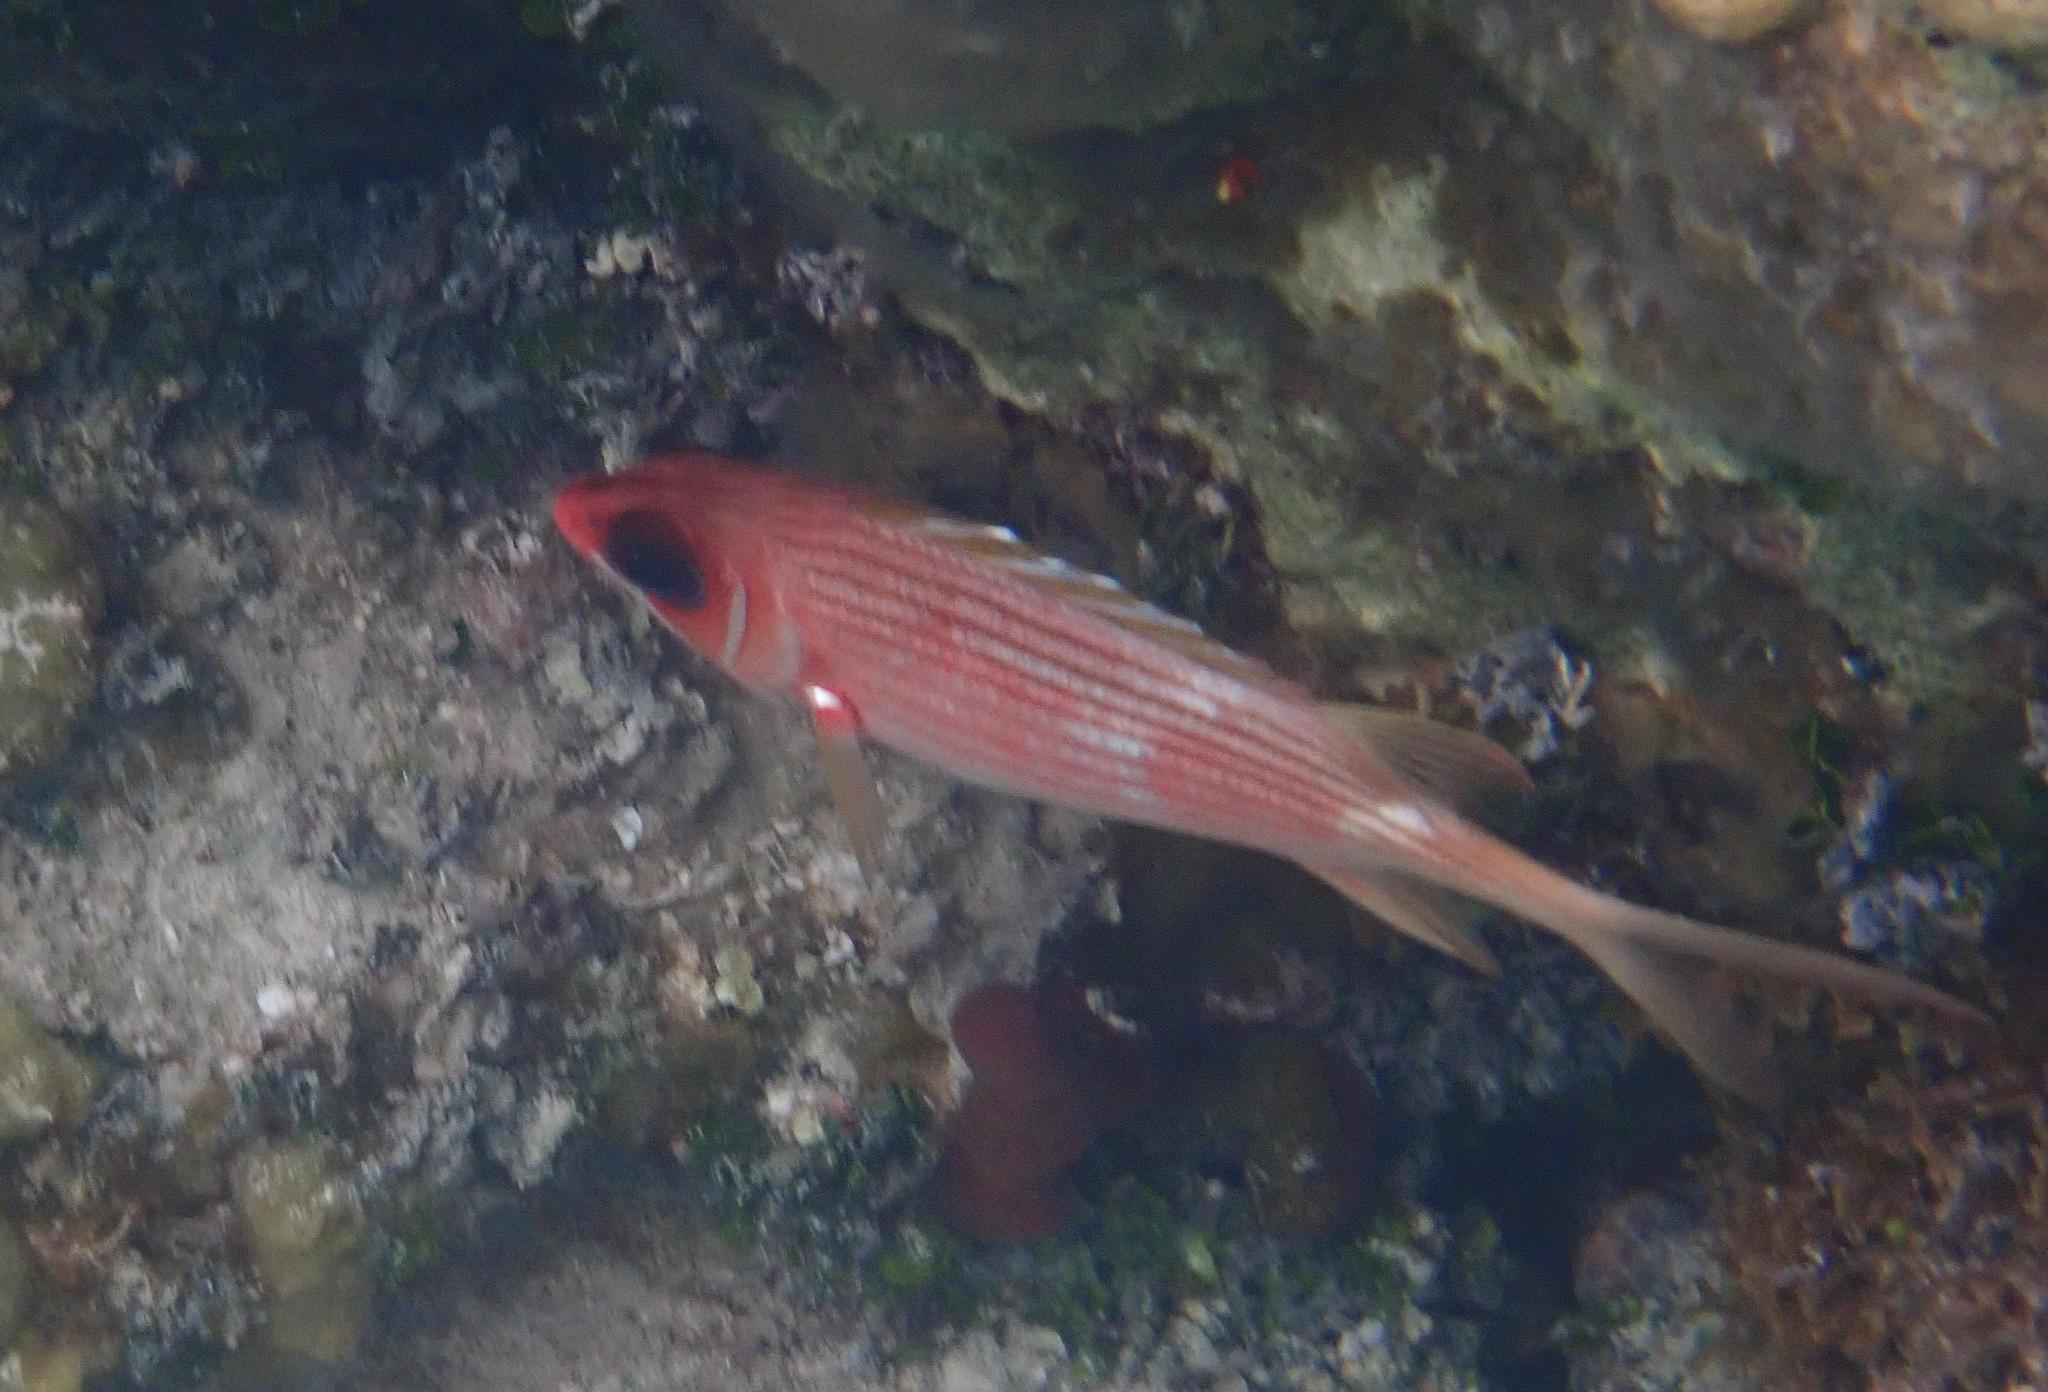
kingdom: Animalia
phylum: Chordata
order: Beryciformes
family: Holocentridae
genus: Holocentrus
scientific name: Holocentrus rufus
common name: Longspine squirrelfish
